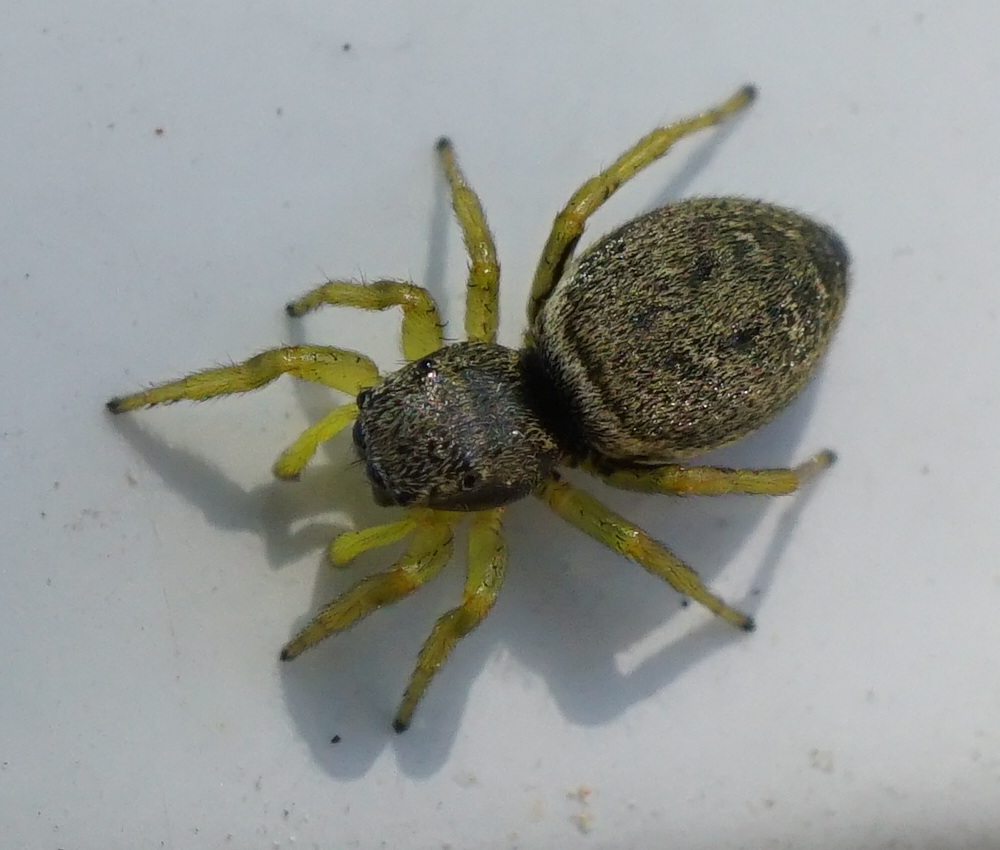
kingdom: Animalia
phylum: Arthropoda
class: Arachnida
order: Araneae
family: Salticidae
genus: Heliophanus
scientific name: Heliophanus flavipes
